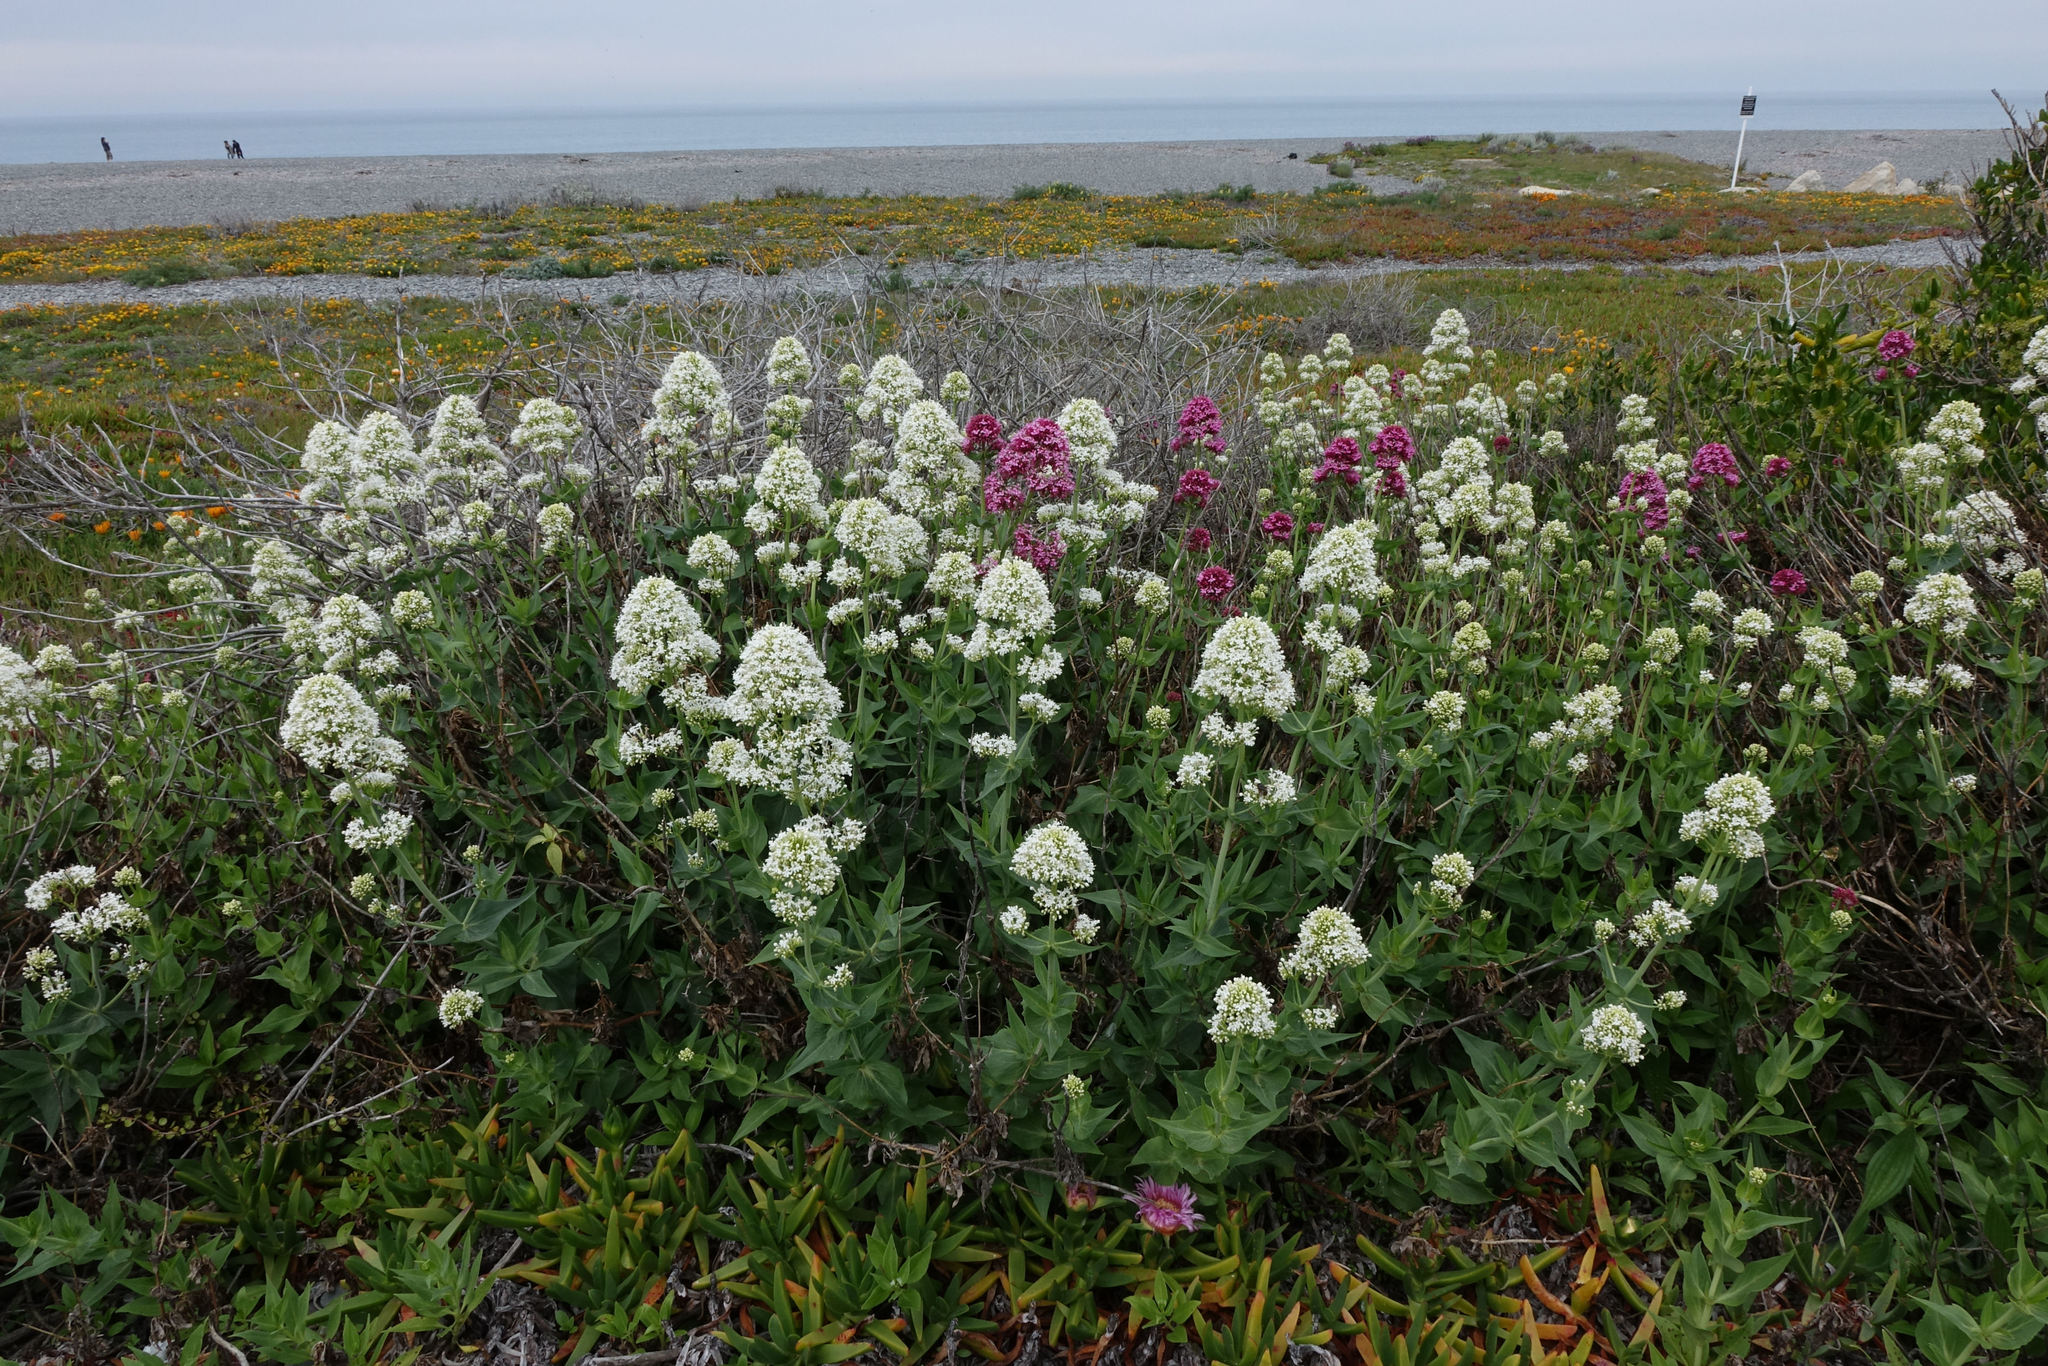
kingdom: Plantae
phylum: Tracheophyta
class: Magnoliopsida
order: Dipsacales
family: Caprifoliaceae
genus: Centranthus
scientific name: Centranthus ruber
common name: Red valerian
